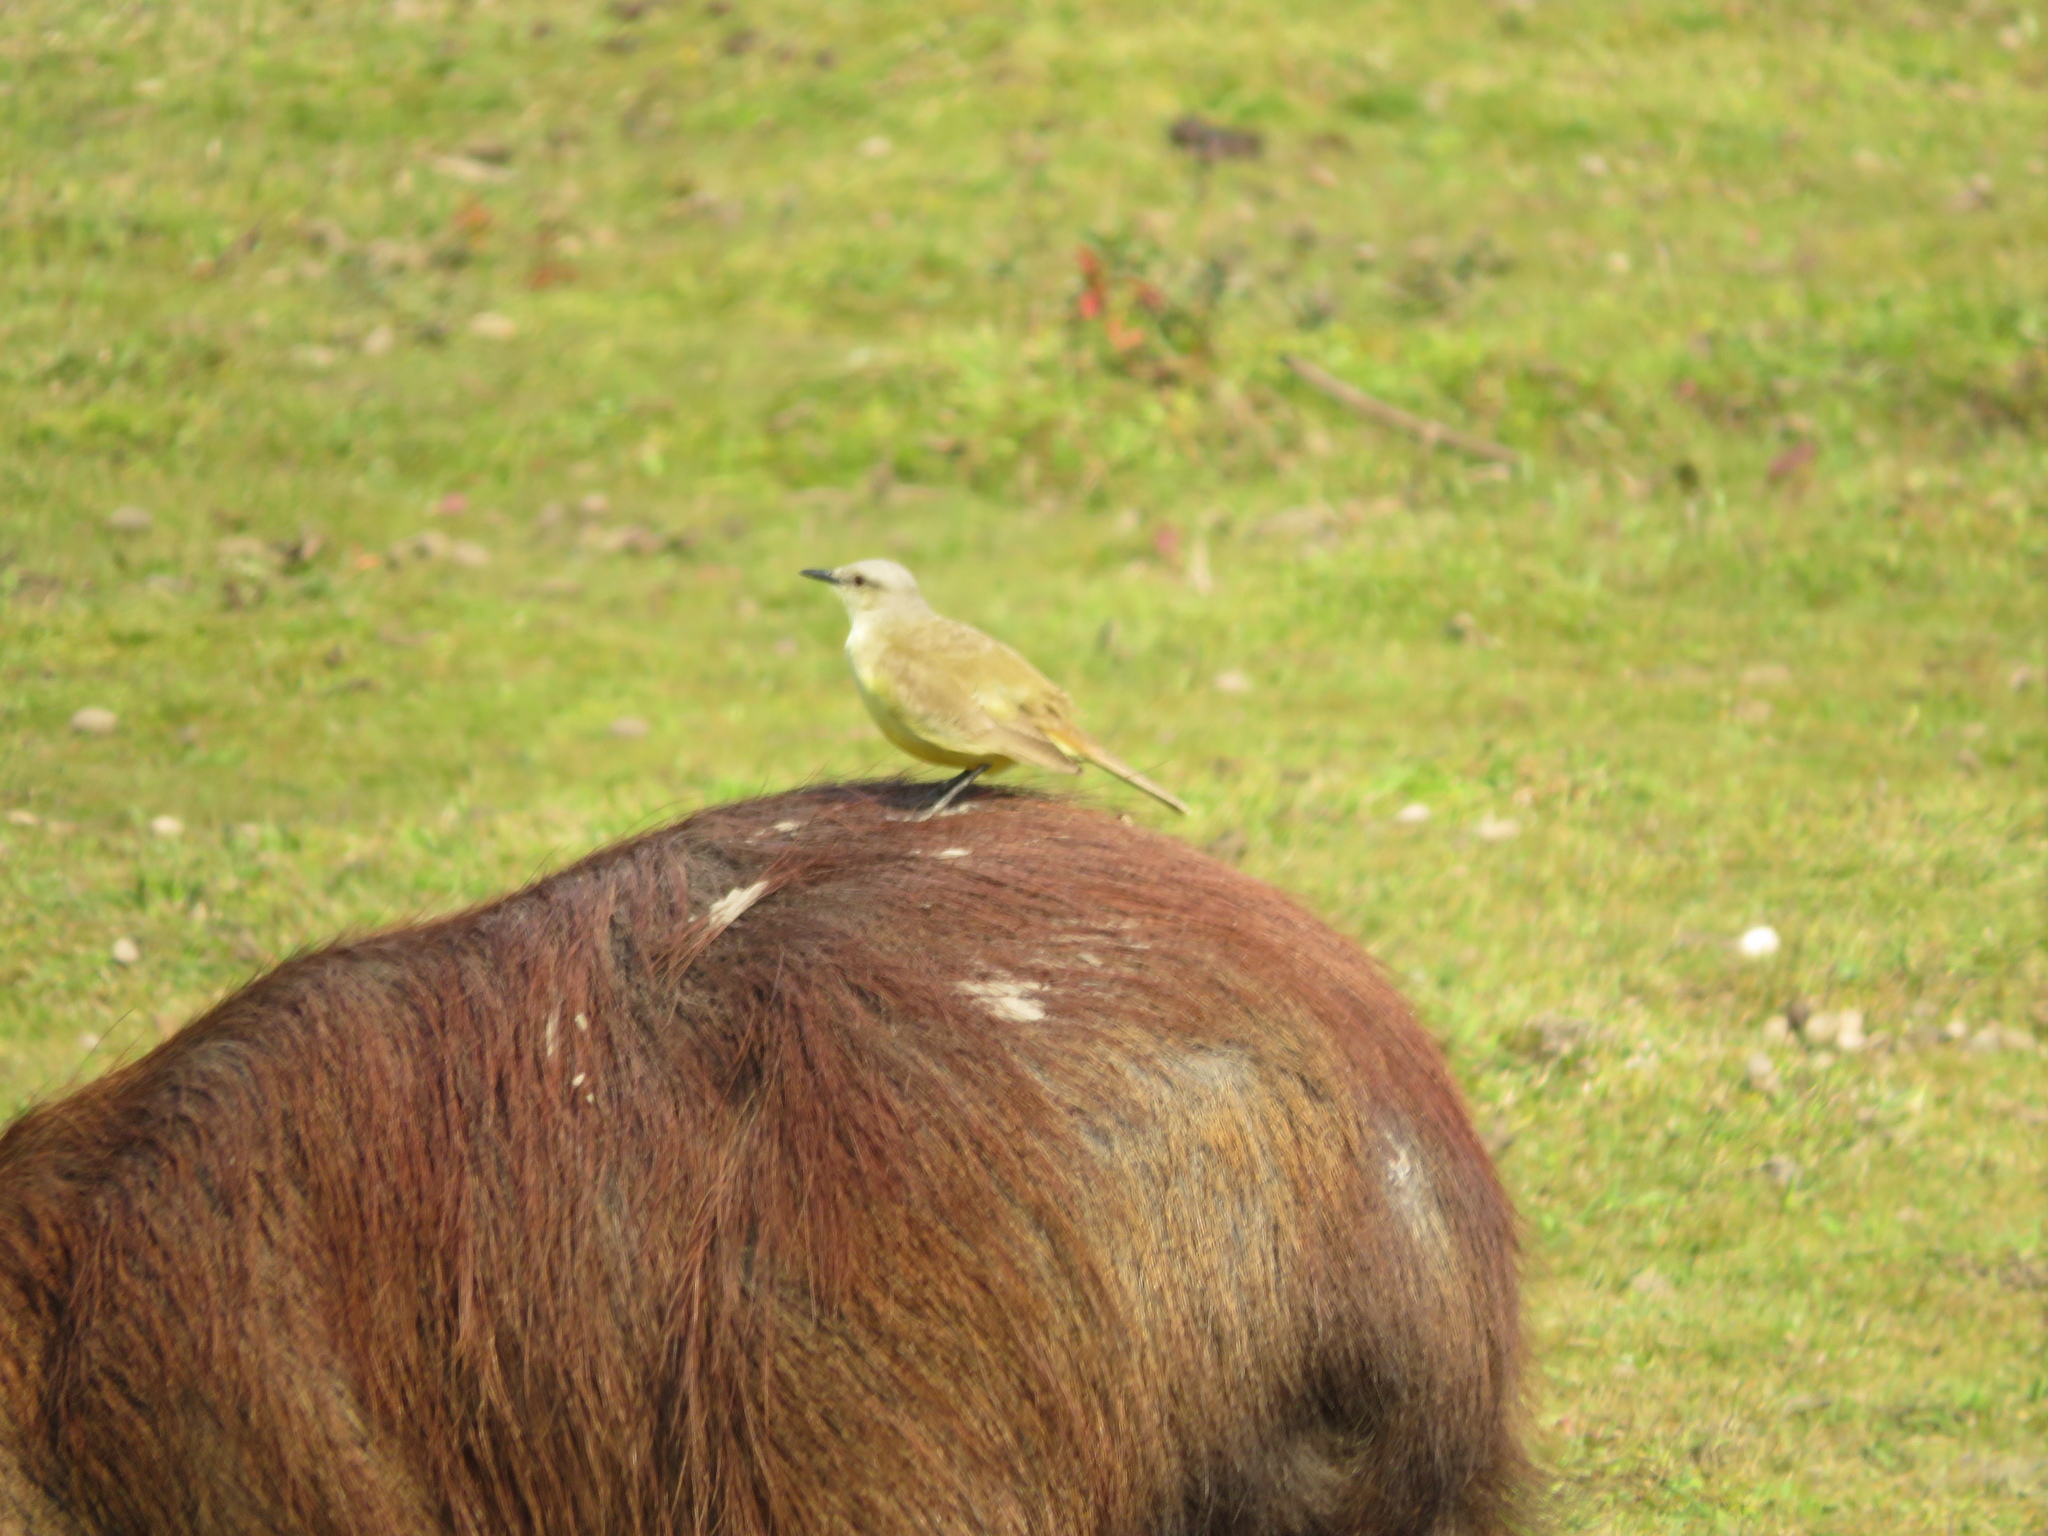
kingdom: Animalia
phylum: Chordata
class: Aves
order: Passeriformes
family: Tyrannidae
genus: Machetornis
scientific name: Machetornis rixosa
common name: Cattle tyrant
